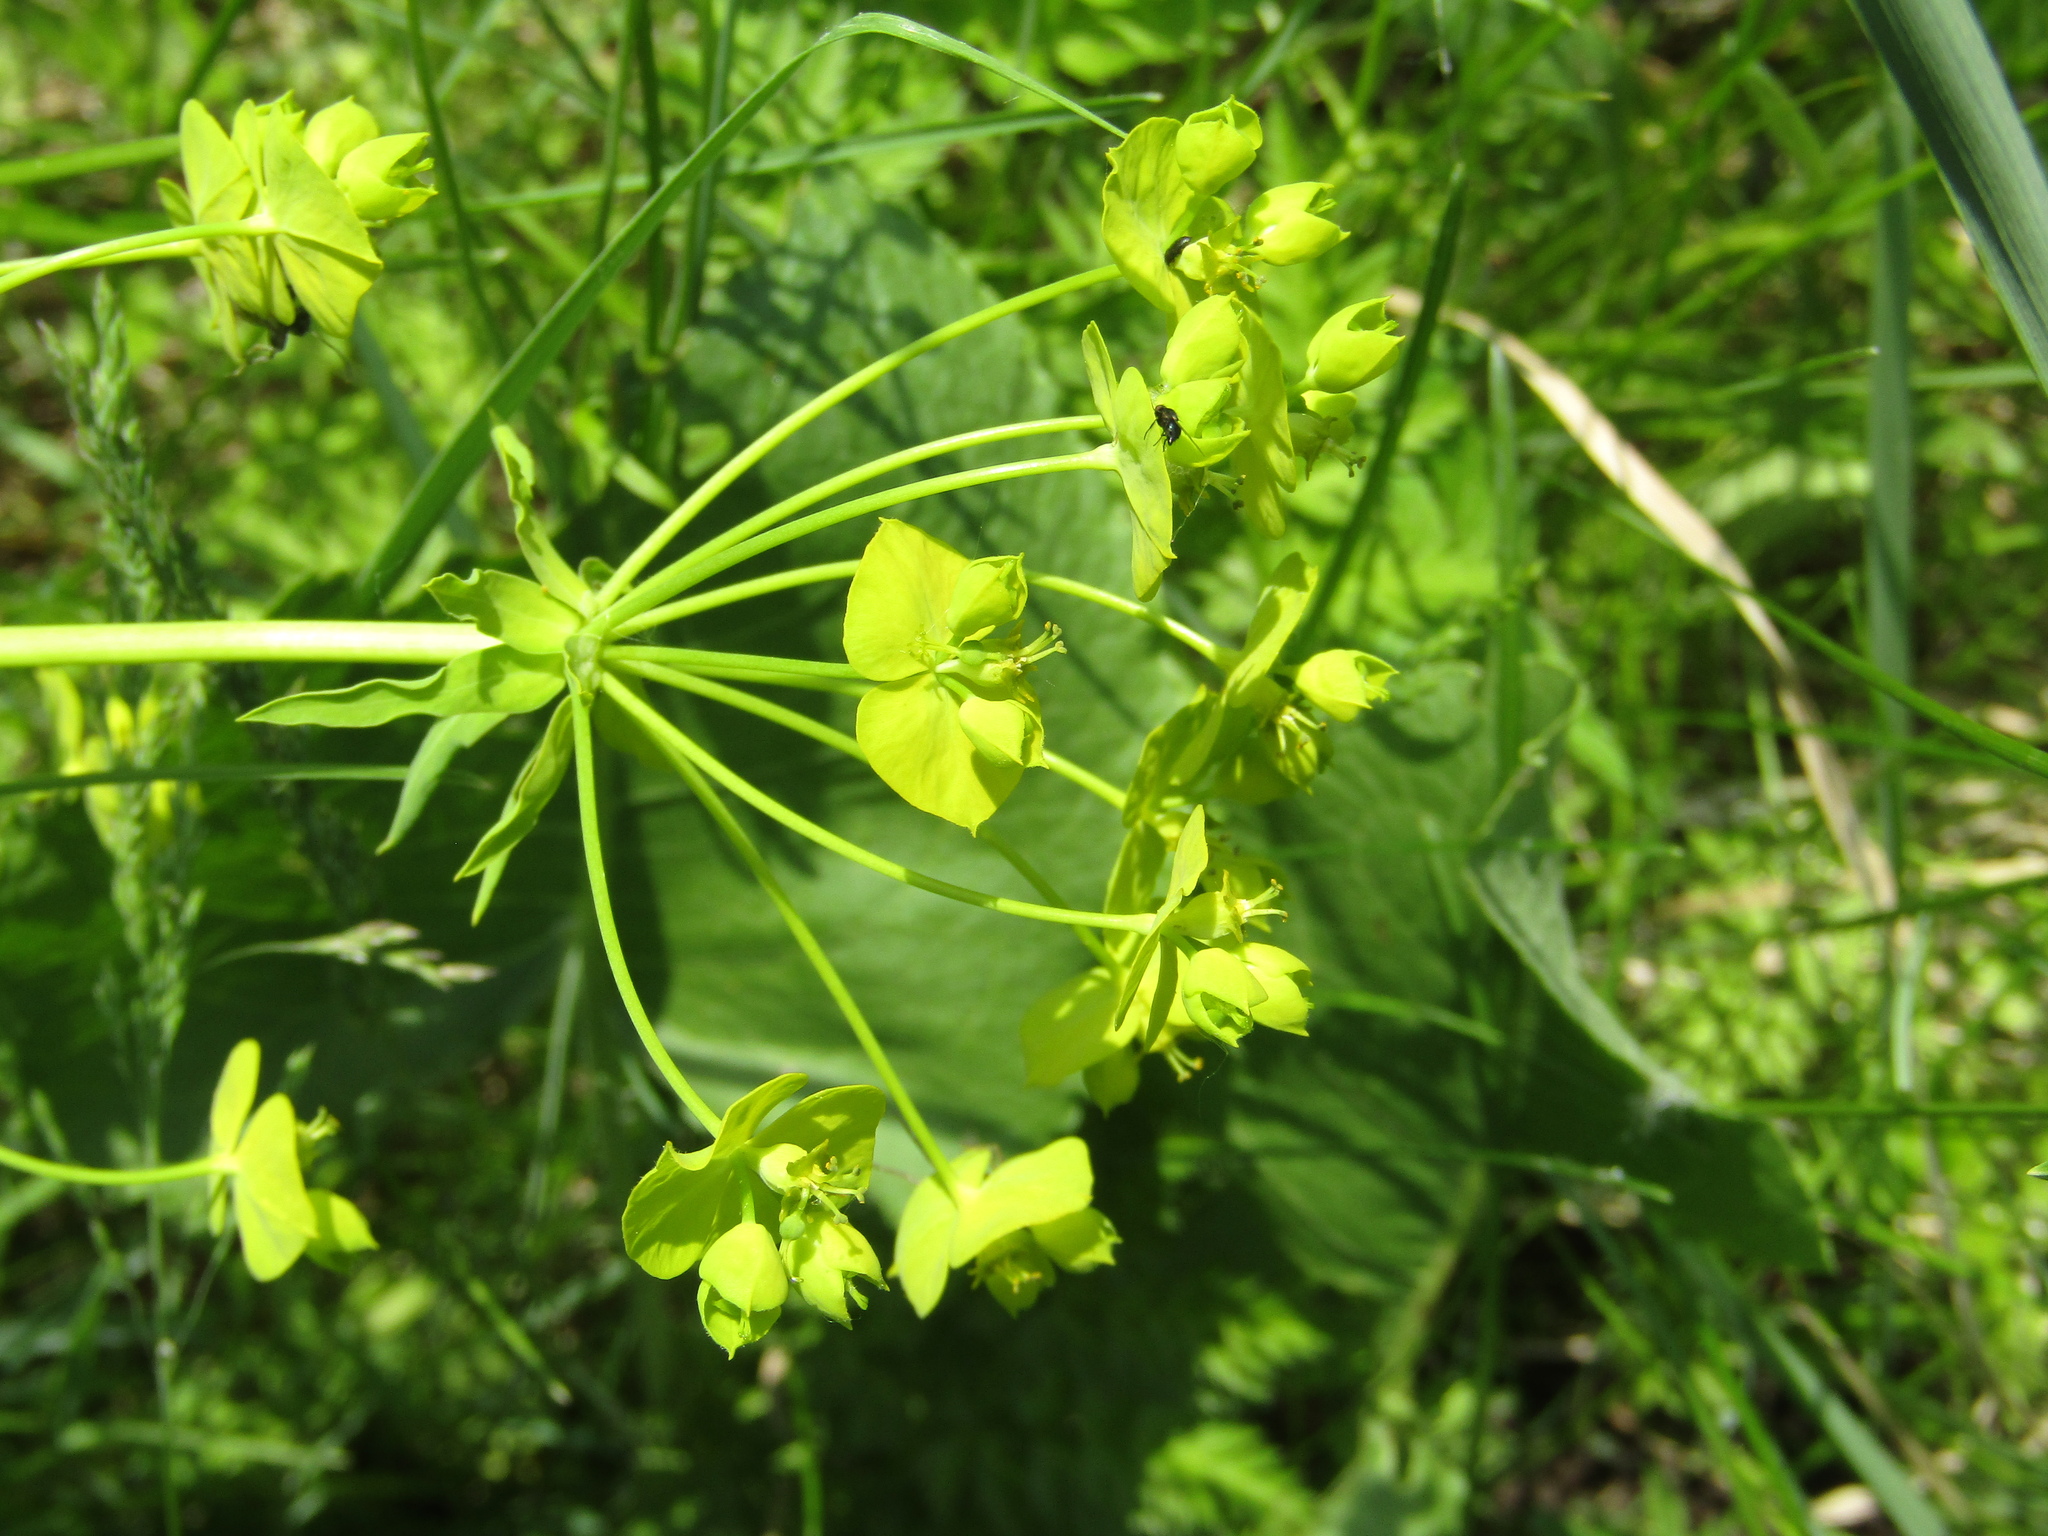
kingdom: Plantae
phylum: Tracheophyta
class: Magnoliopsida
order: Malpighiales
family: Euphorbiaceae
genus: Euphorbia
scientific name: Euphorbia virgata
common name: Leafy spurge
